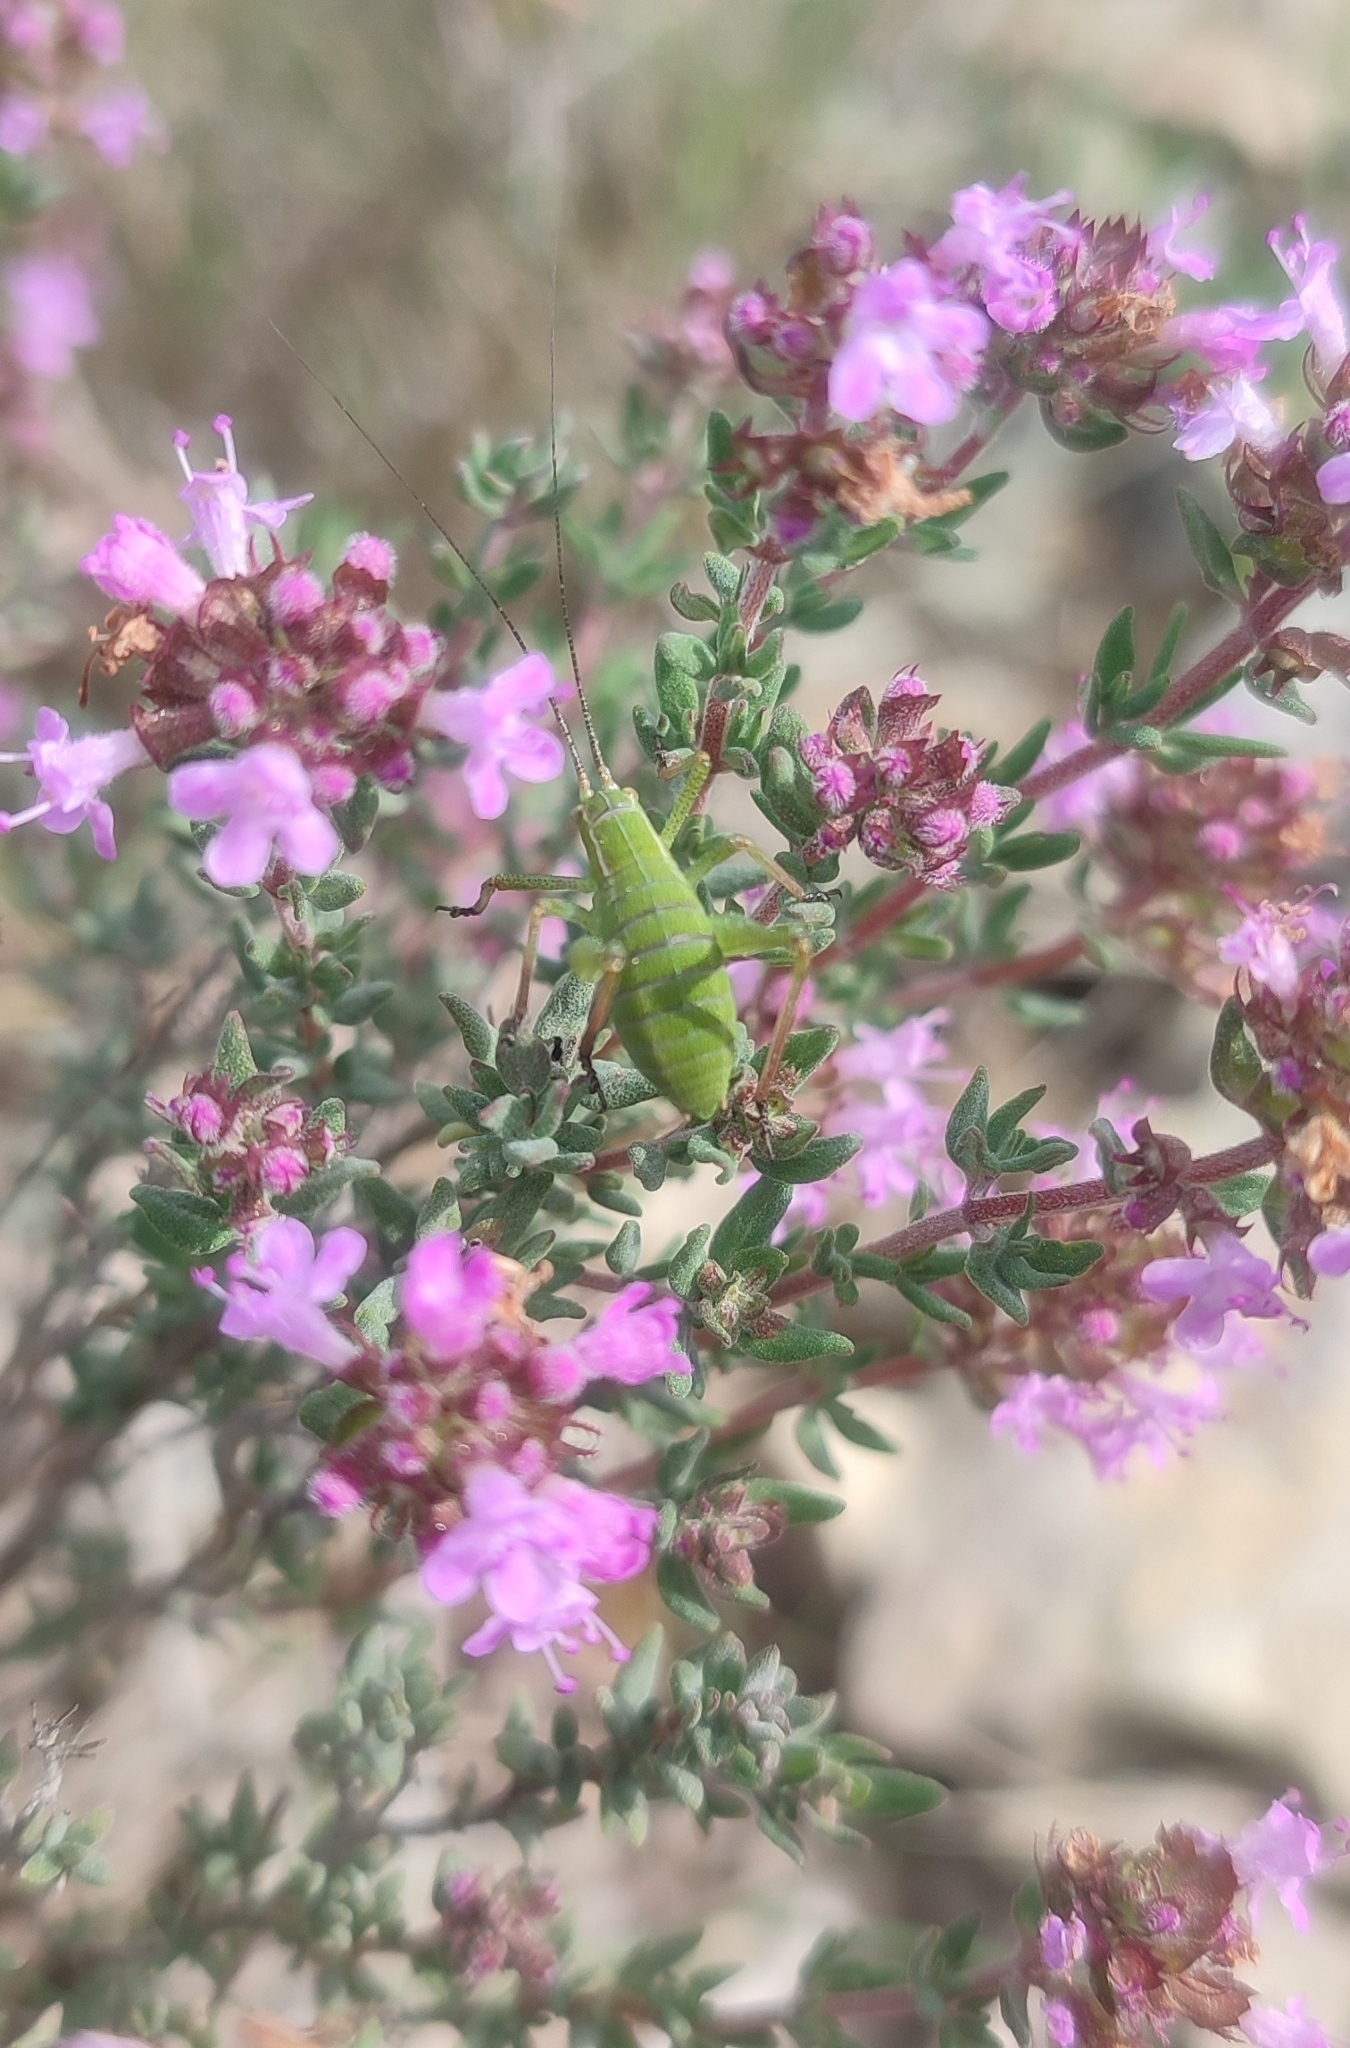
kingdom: Animalia
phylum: Arthropoda
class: Insecta
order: Orthoptera
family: Tettigoniidae
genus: Isophya
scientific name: Isophya pyrenaea
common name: Pyrenean plump bush-cricket
